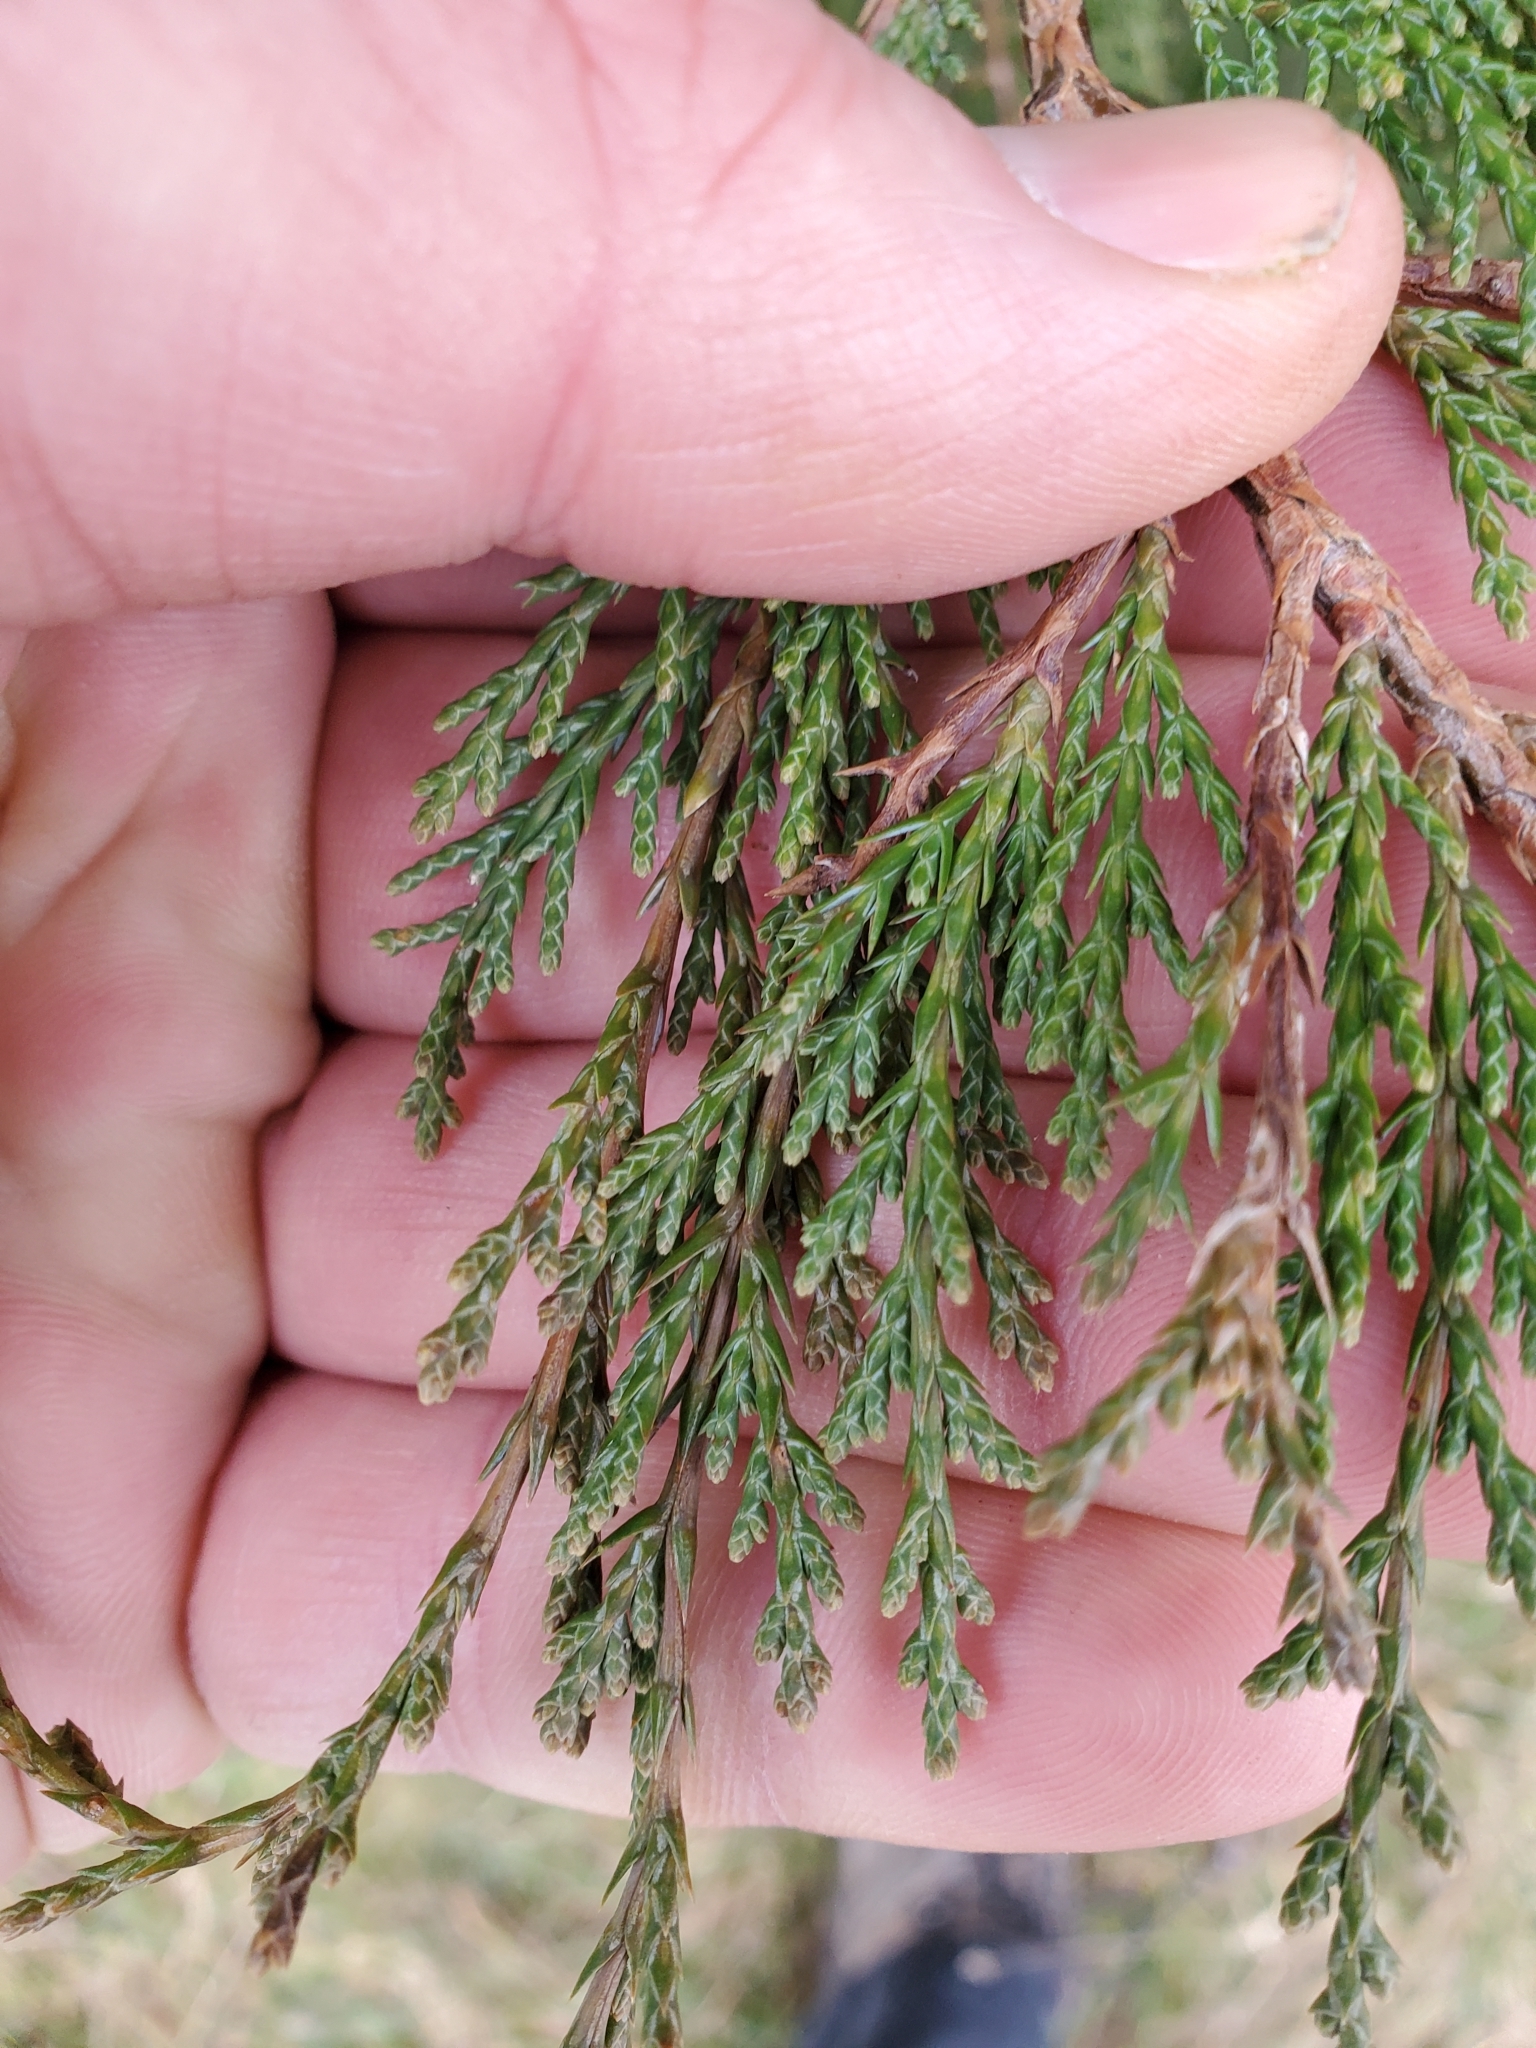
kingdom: Plantae
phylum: Tracheophyta
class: Pinopsida
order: Pinales
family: Cupressaceae
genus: Juniperus
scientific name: Juniperus scopulorum
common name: Rocky mountain juniper
